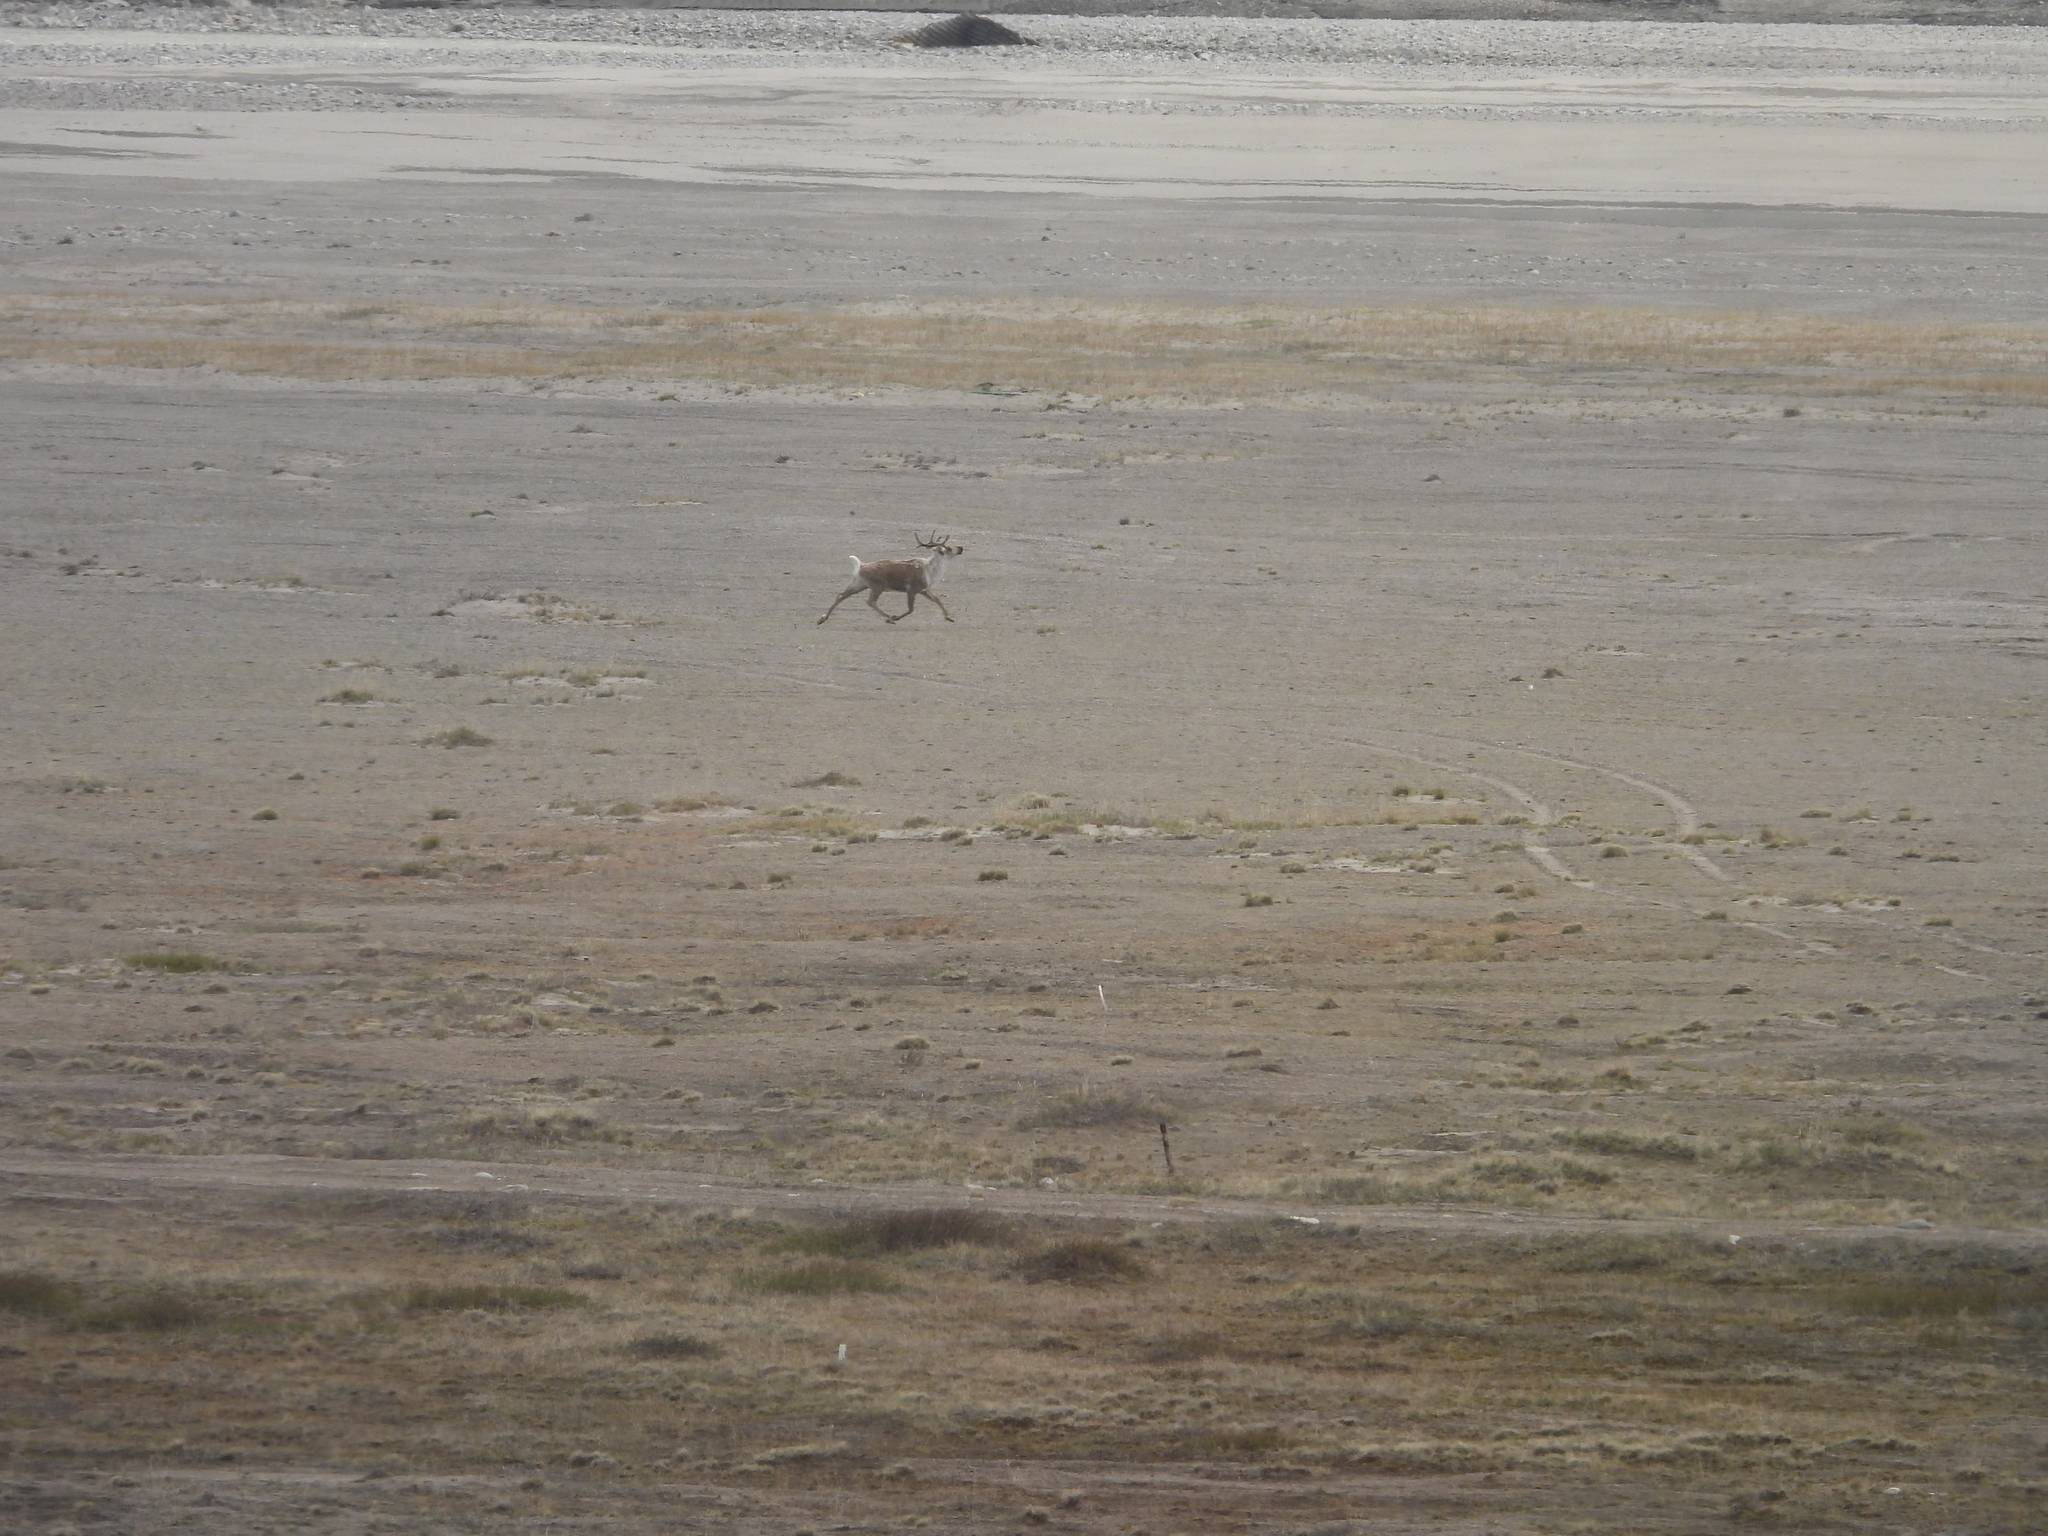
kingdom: Animalia
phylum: Chordata
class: Mammalia
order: Artiodactyla
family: Cervidae
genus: Rangifer
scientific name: Rangifer tarandus
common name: Reindeer
